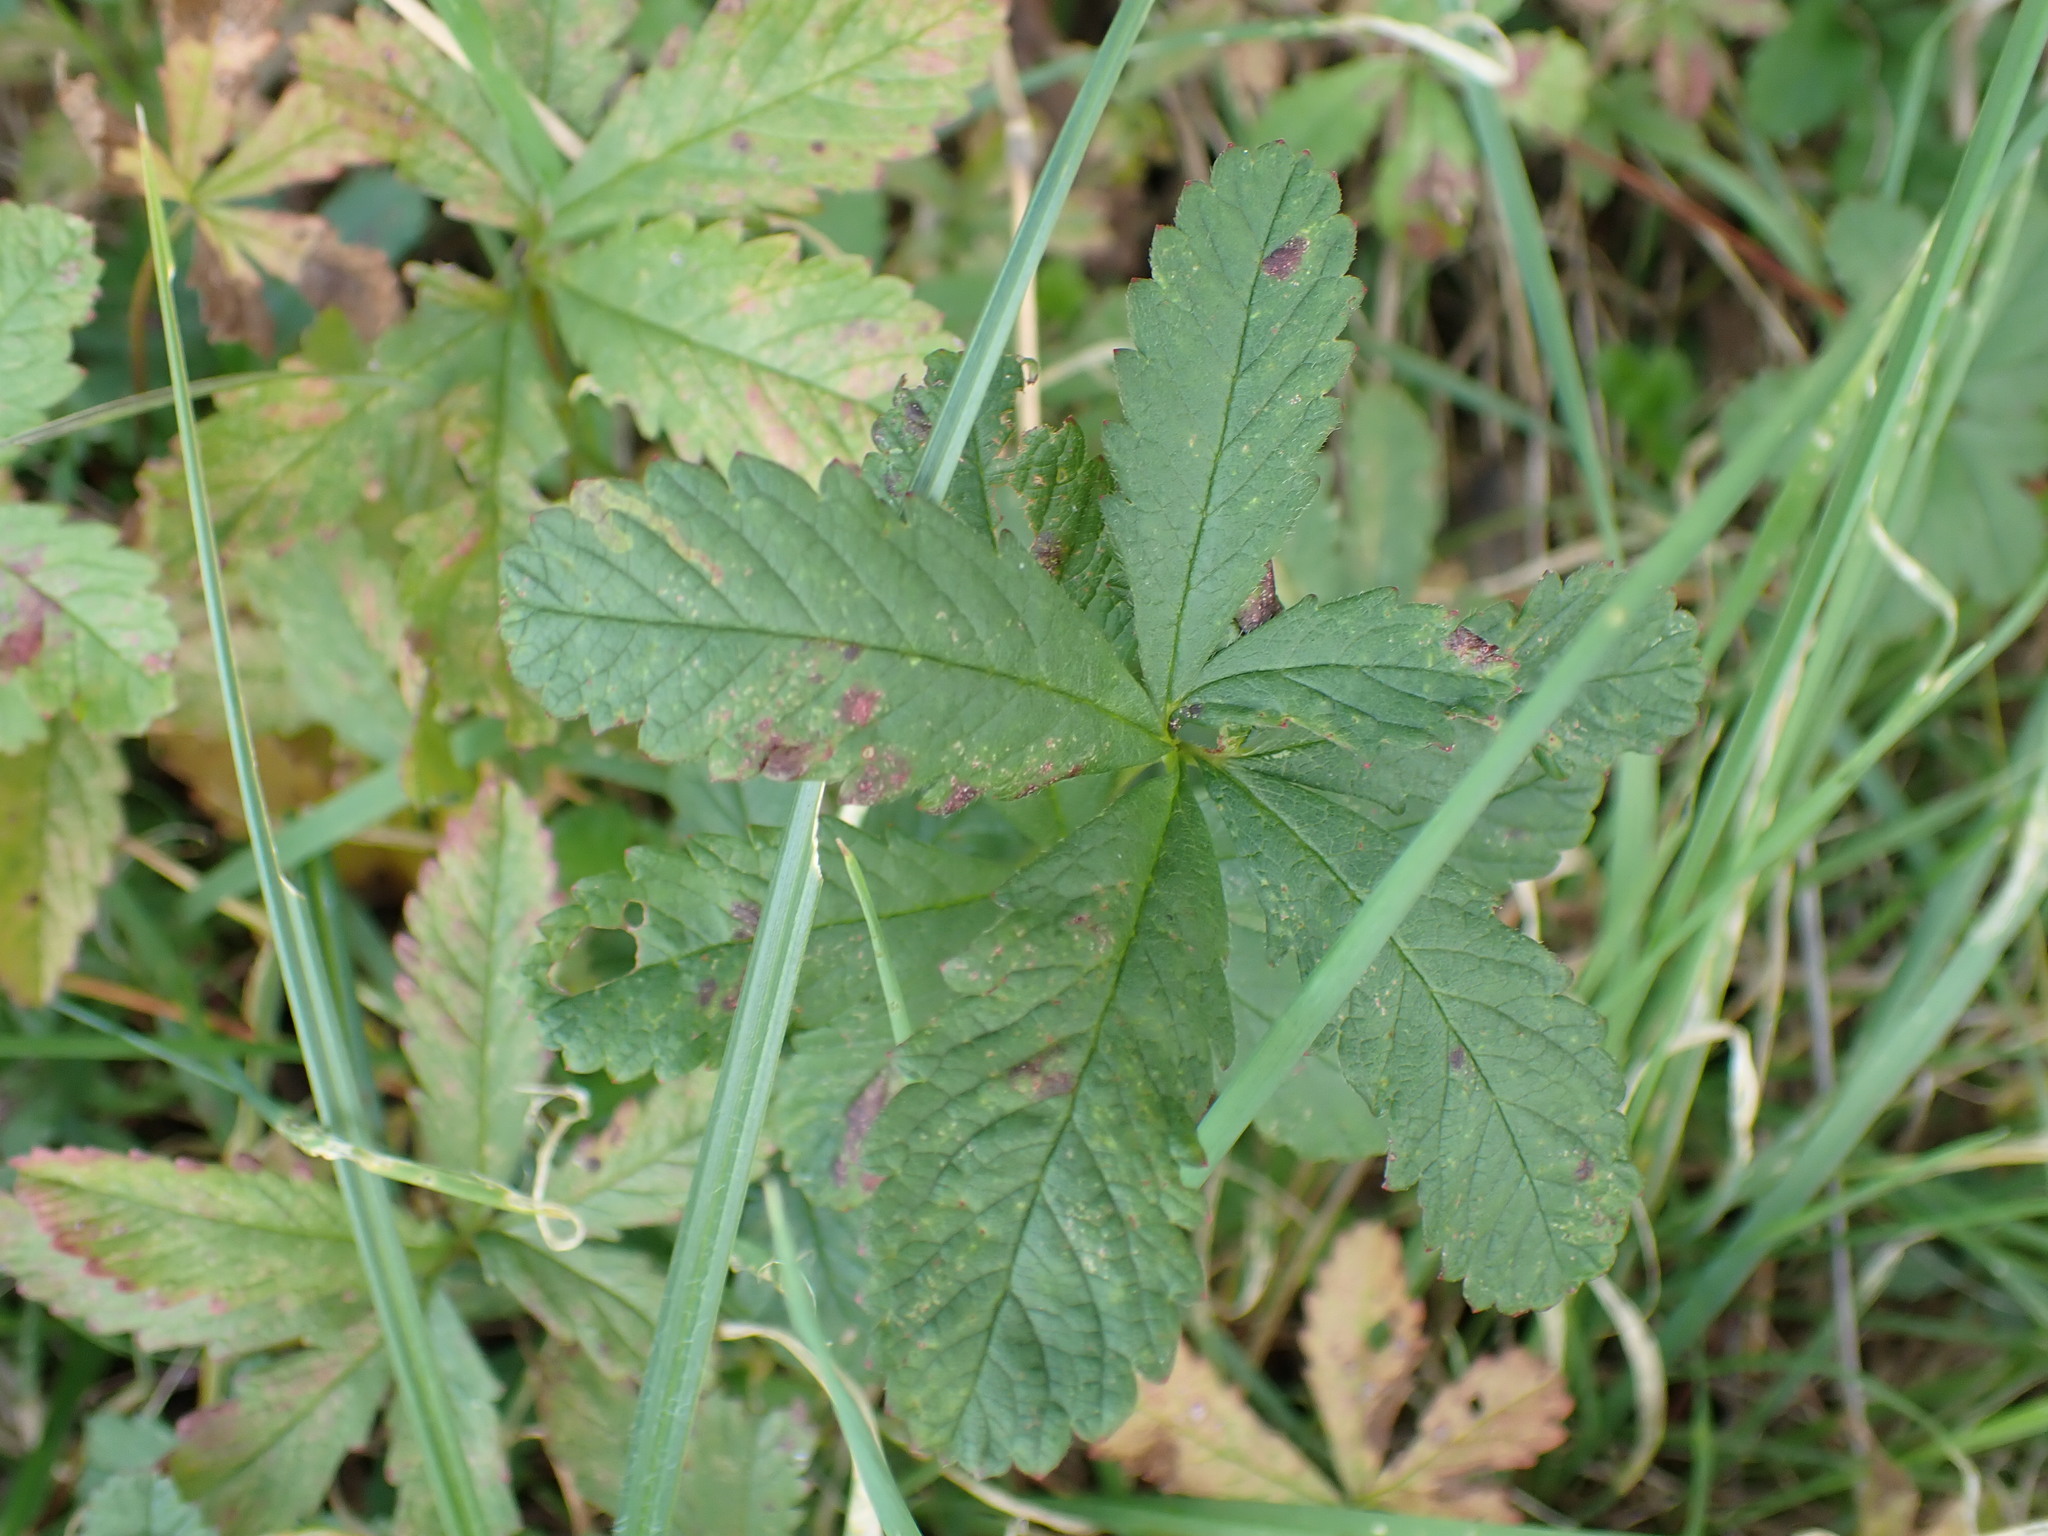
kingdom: Plantae
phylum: Tracheophyta
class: Magnoliopsida
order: Rosales
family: Rosaceae
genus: Potentilla
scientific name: Potentilla reptans
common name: Creeping cinquefoil
